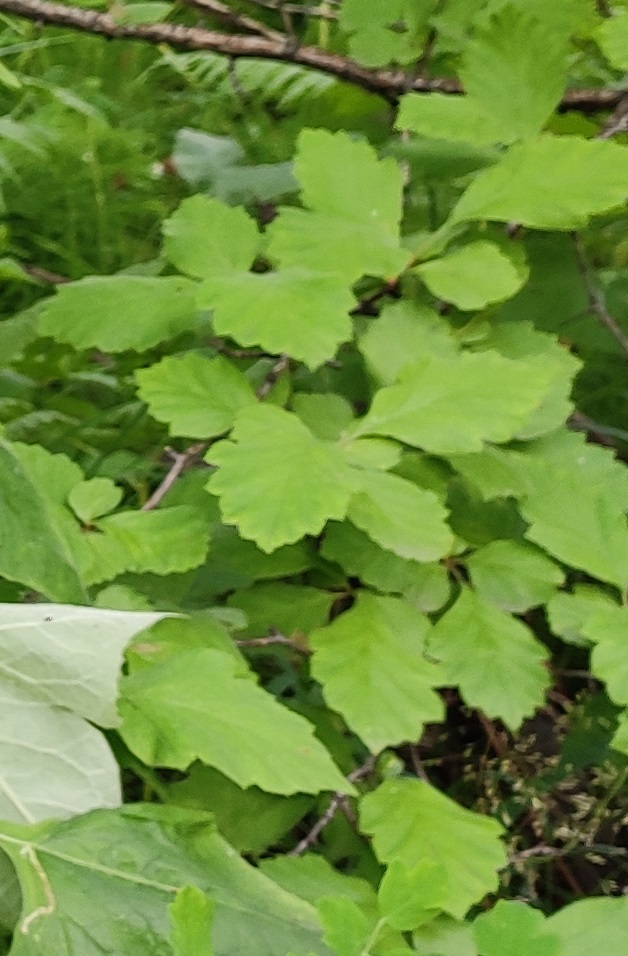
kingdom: Plantae
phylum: Tracheophyta
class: Magnoliopsida
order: Rosales
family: Rosaceae
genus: Crataegus
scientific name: Crataegus sanguinea
